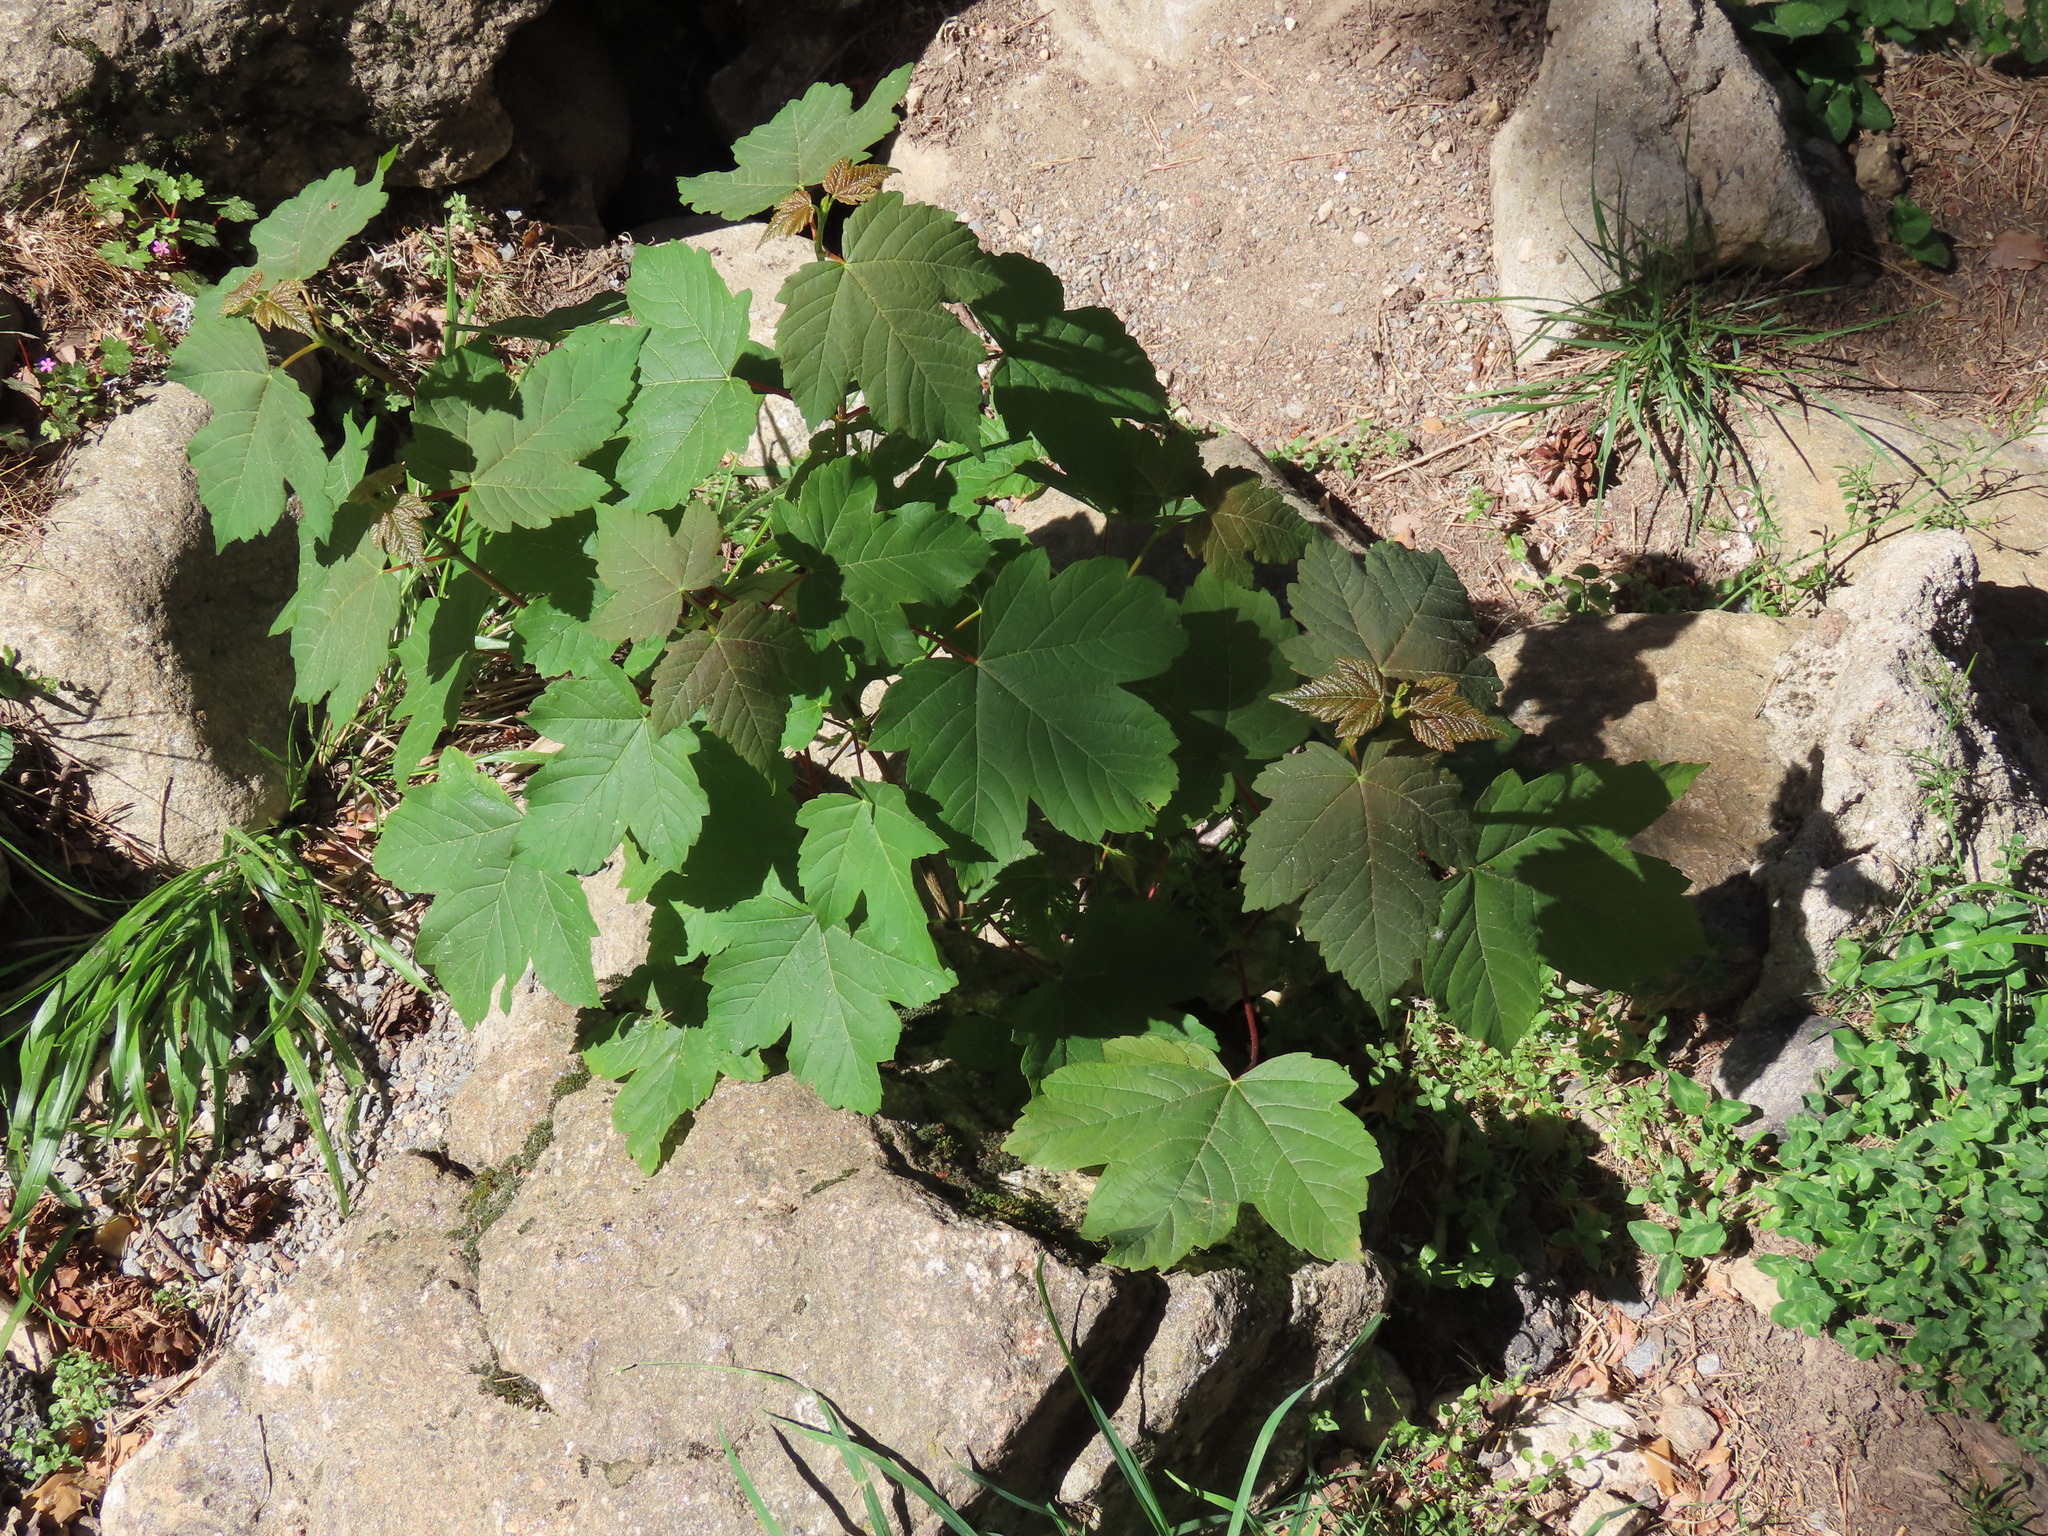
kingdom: Plantae
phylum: Tracheophyta
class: Magnoliopsida
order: Sapindales
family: Sapindaceae
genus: Acer
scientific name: Acer pseudoplatanus
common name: Sycamore
